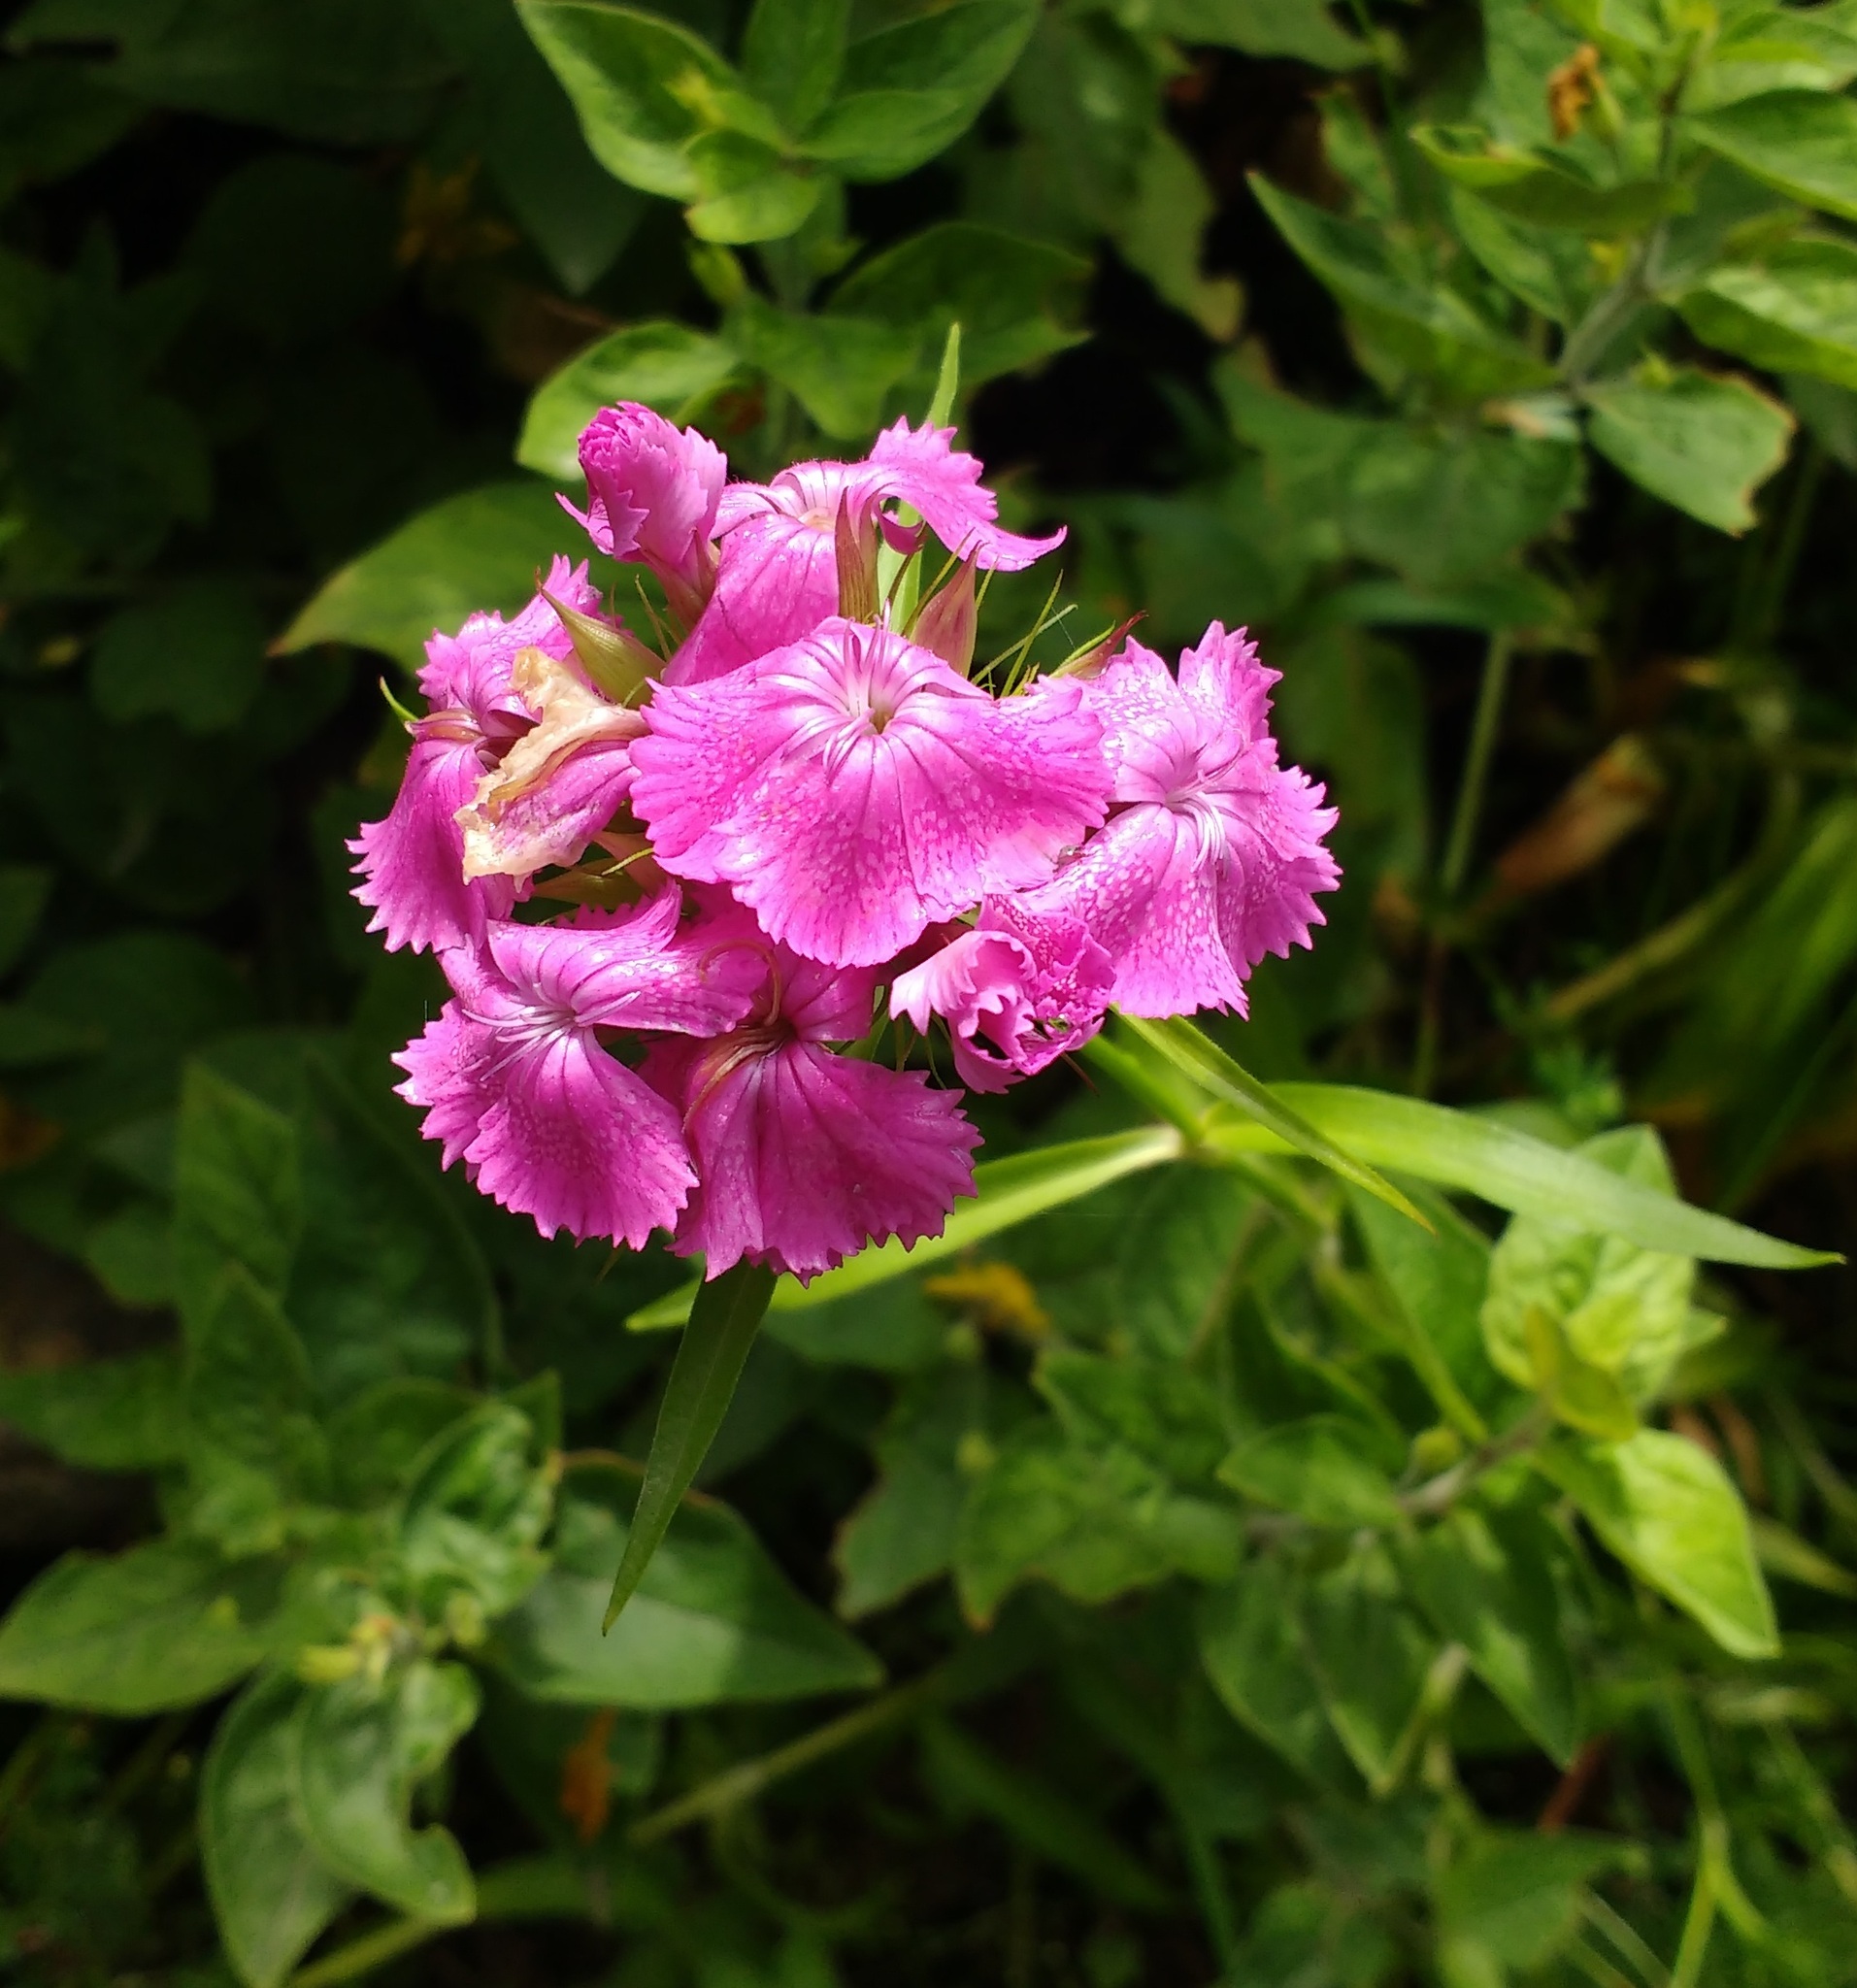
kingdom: Plantae
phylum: Tracheophyta
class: Magnoliopsida
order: Caryophyllales
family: Caryophyllaceae
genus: Dianthus
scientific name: Dianthus barbatus
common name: Sweet-william
